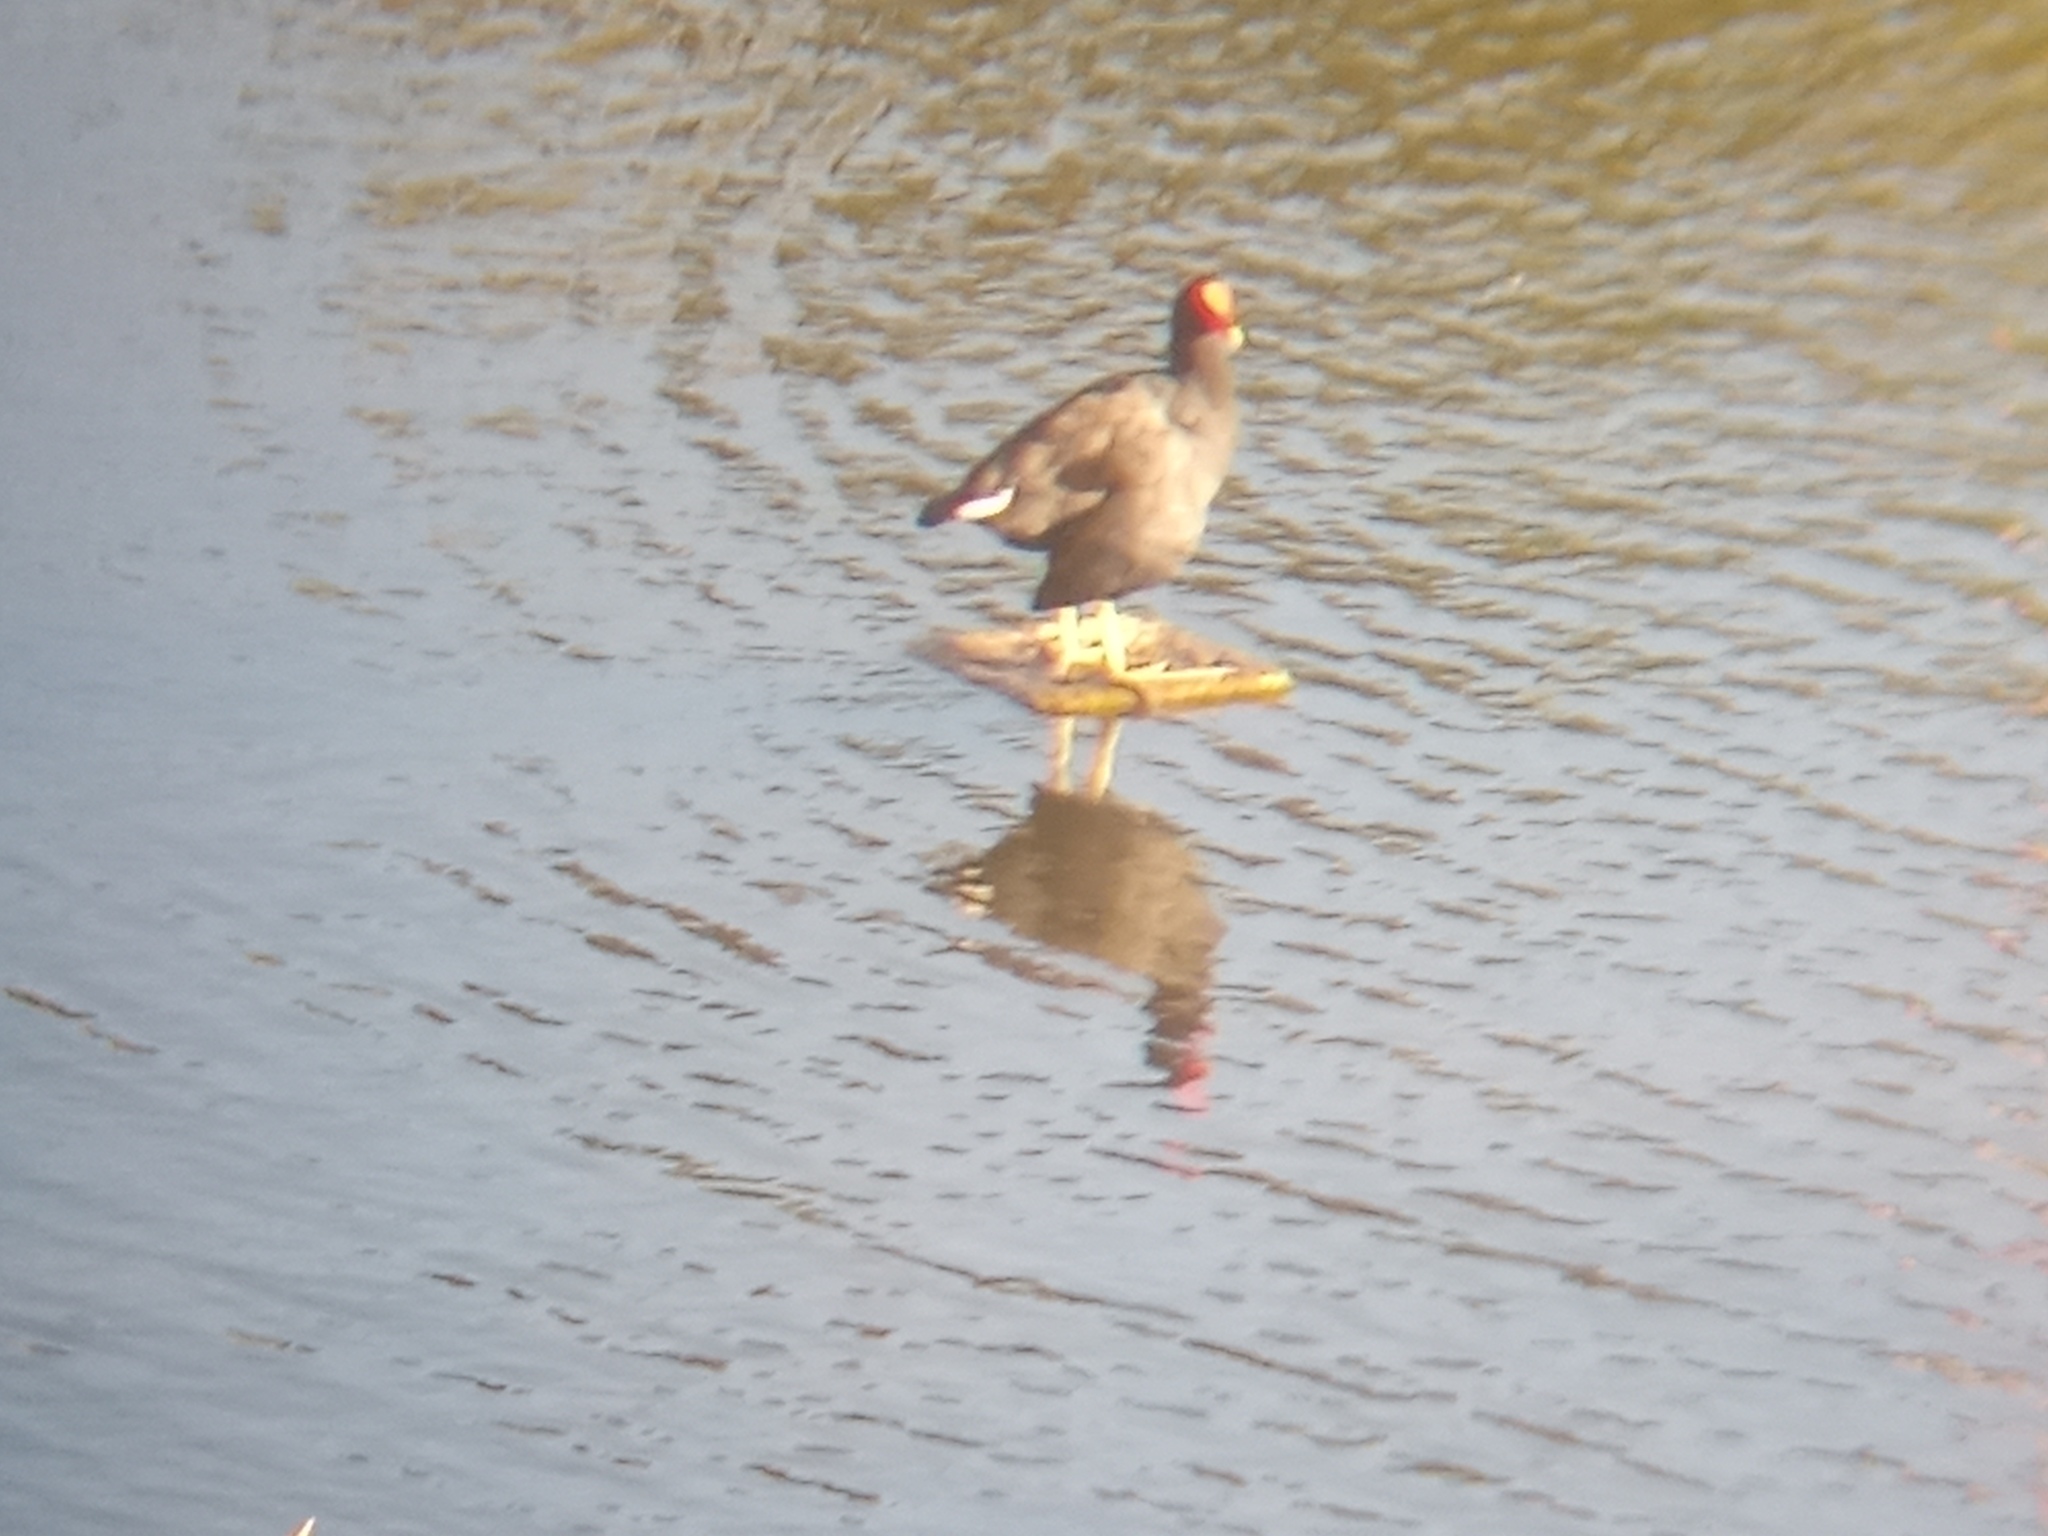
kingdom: Animalia
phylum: Chordata
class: Aves
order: Gruiformes
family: Rallidae
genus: Gallinula
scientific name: Gallinula chloropus
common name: Common moorhen
